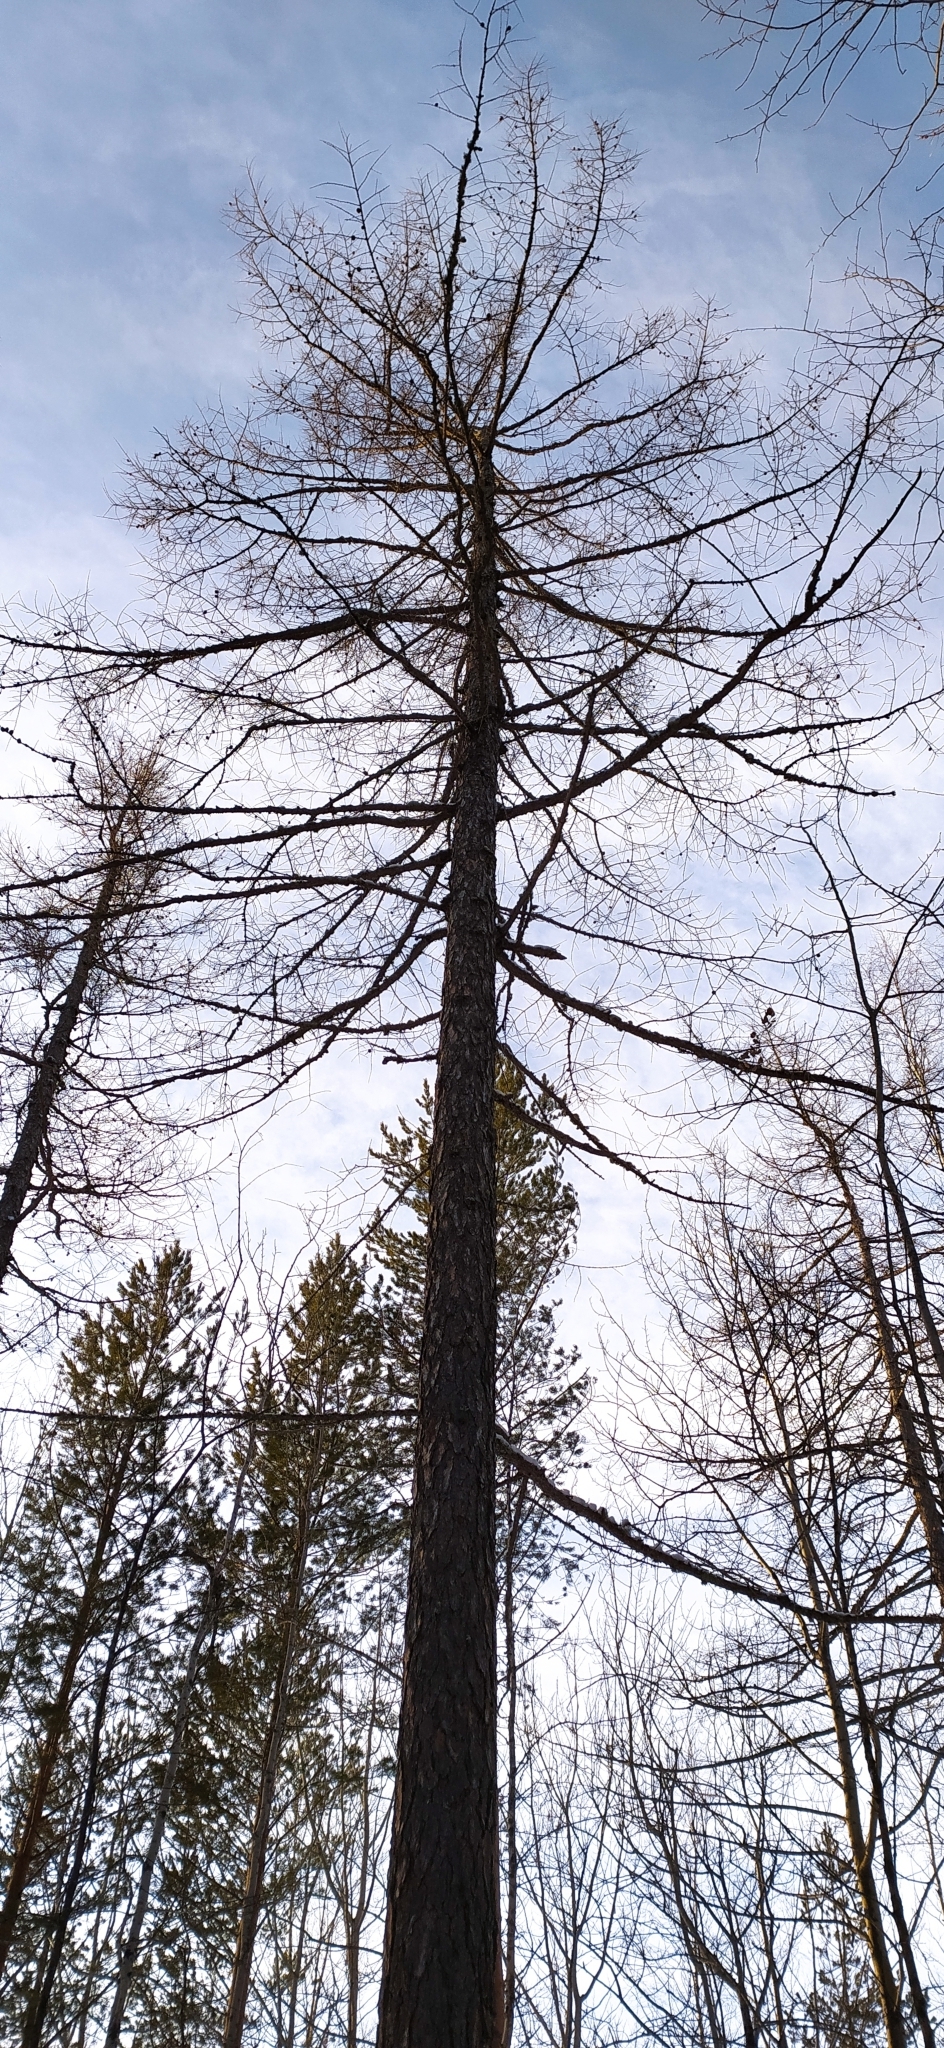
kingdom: Plantae
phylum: Tracheophyta
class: Pinopsida
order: Pinales
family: Pinaceae
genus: Larix
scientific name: Larix sibirica
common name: Siberian larch
